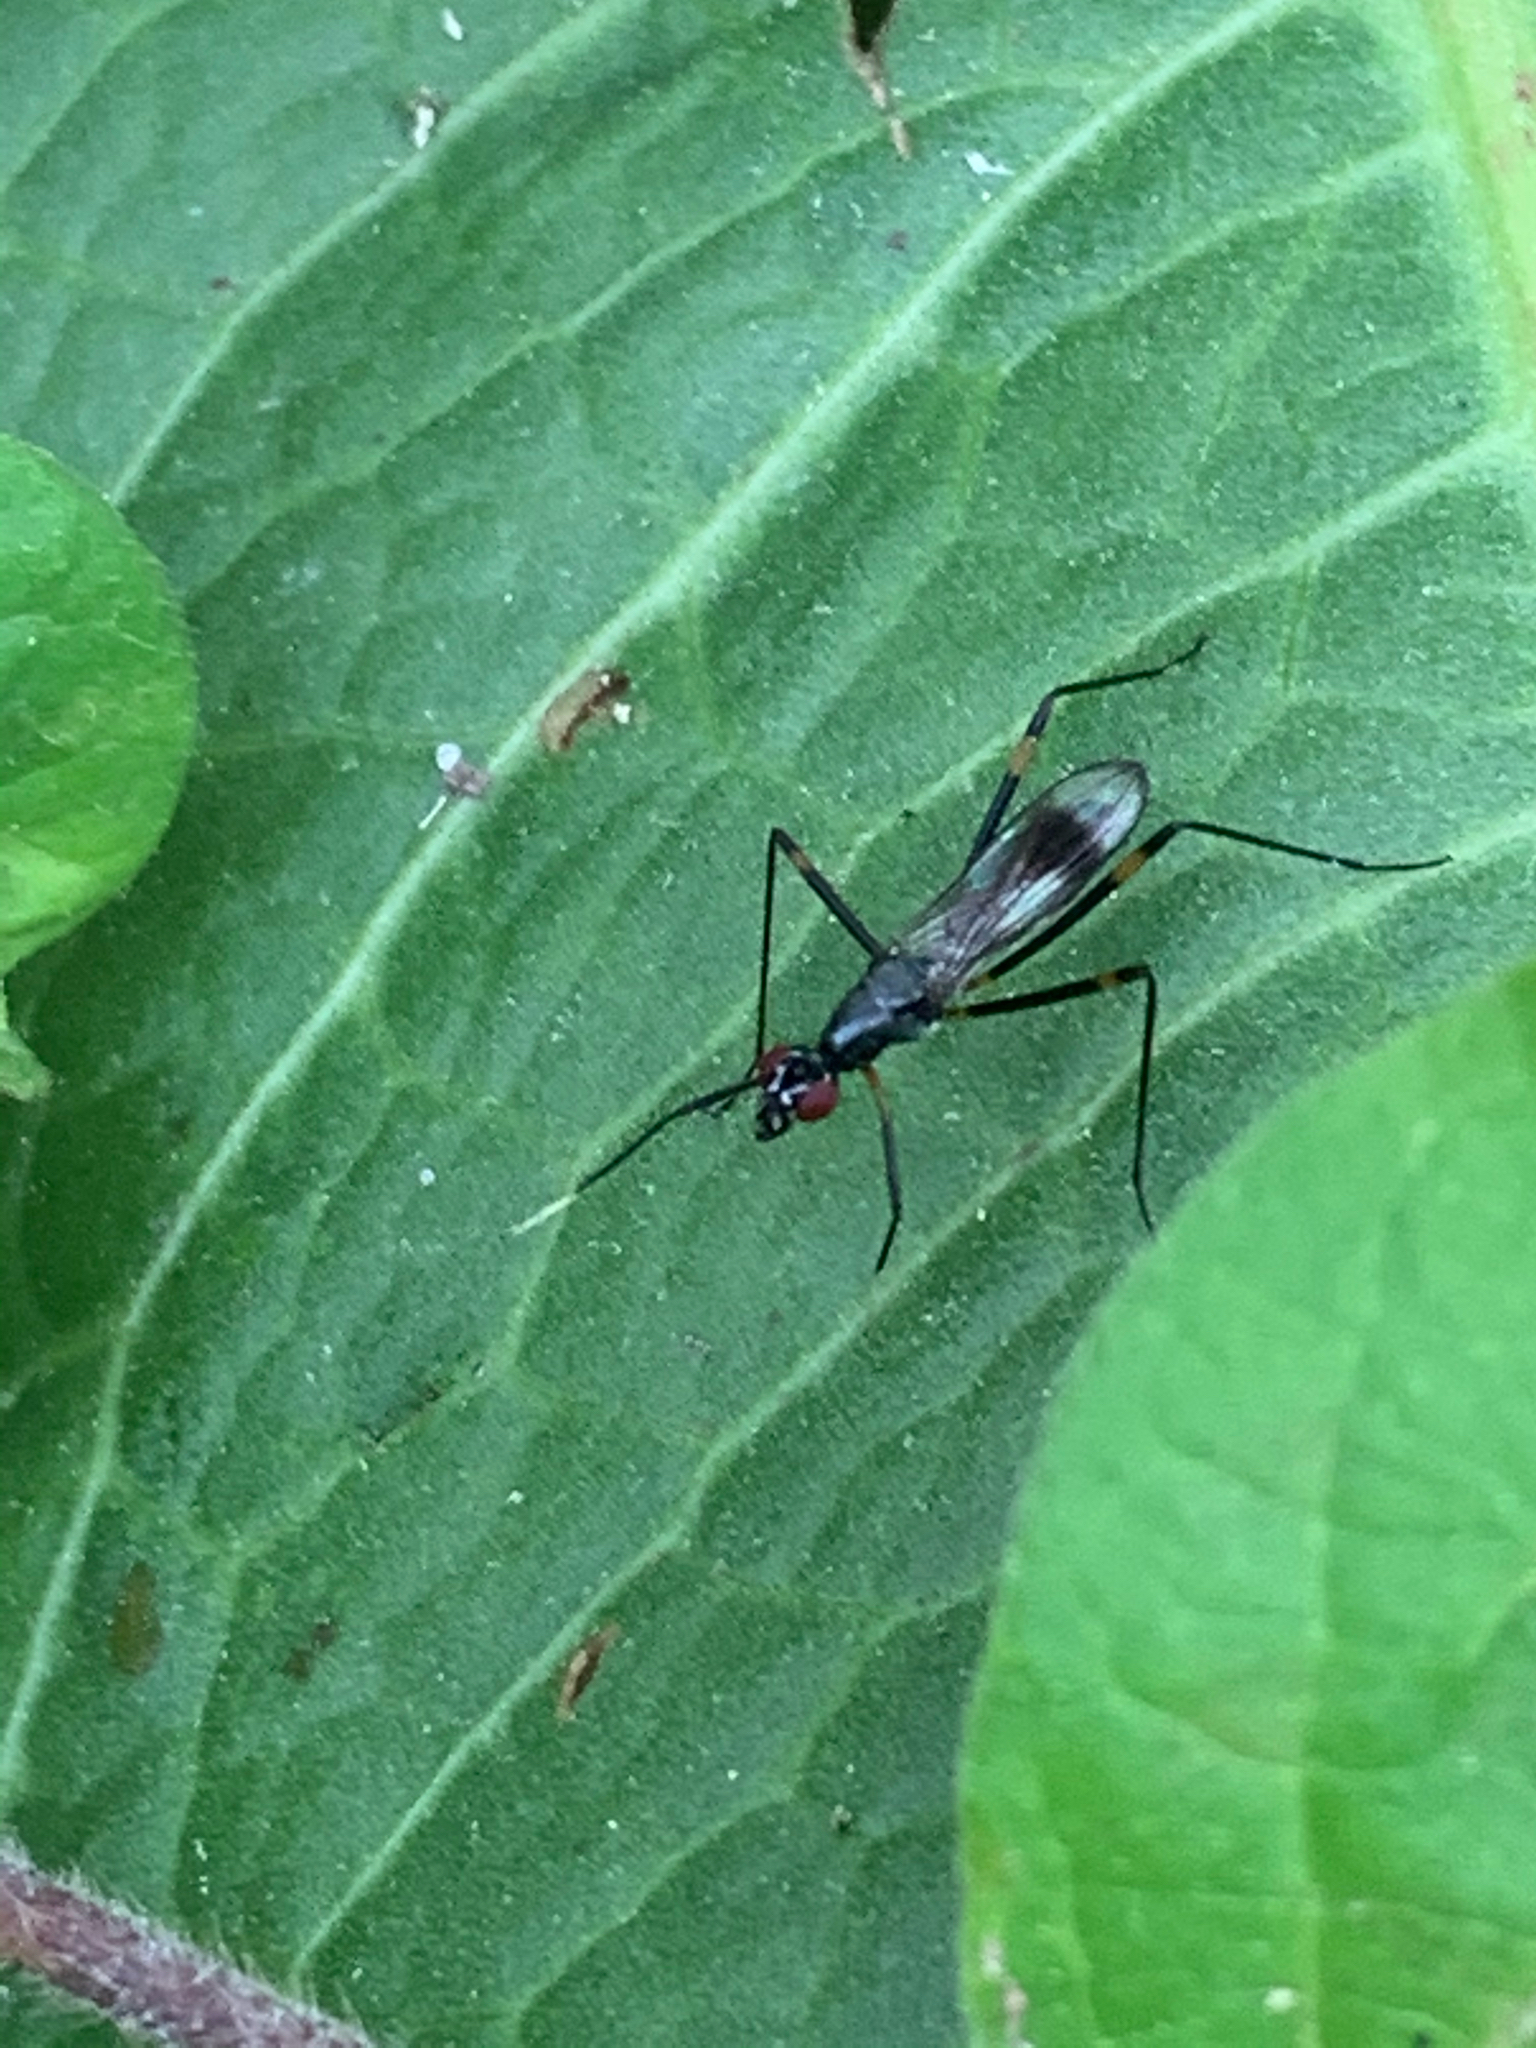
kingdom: Animalia
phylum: Arthropoda
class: Insecta
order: Diptera
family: Micropezidae
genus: Rainieria
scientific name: Rainieria antennaepes
